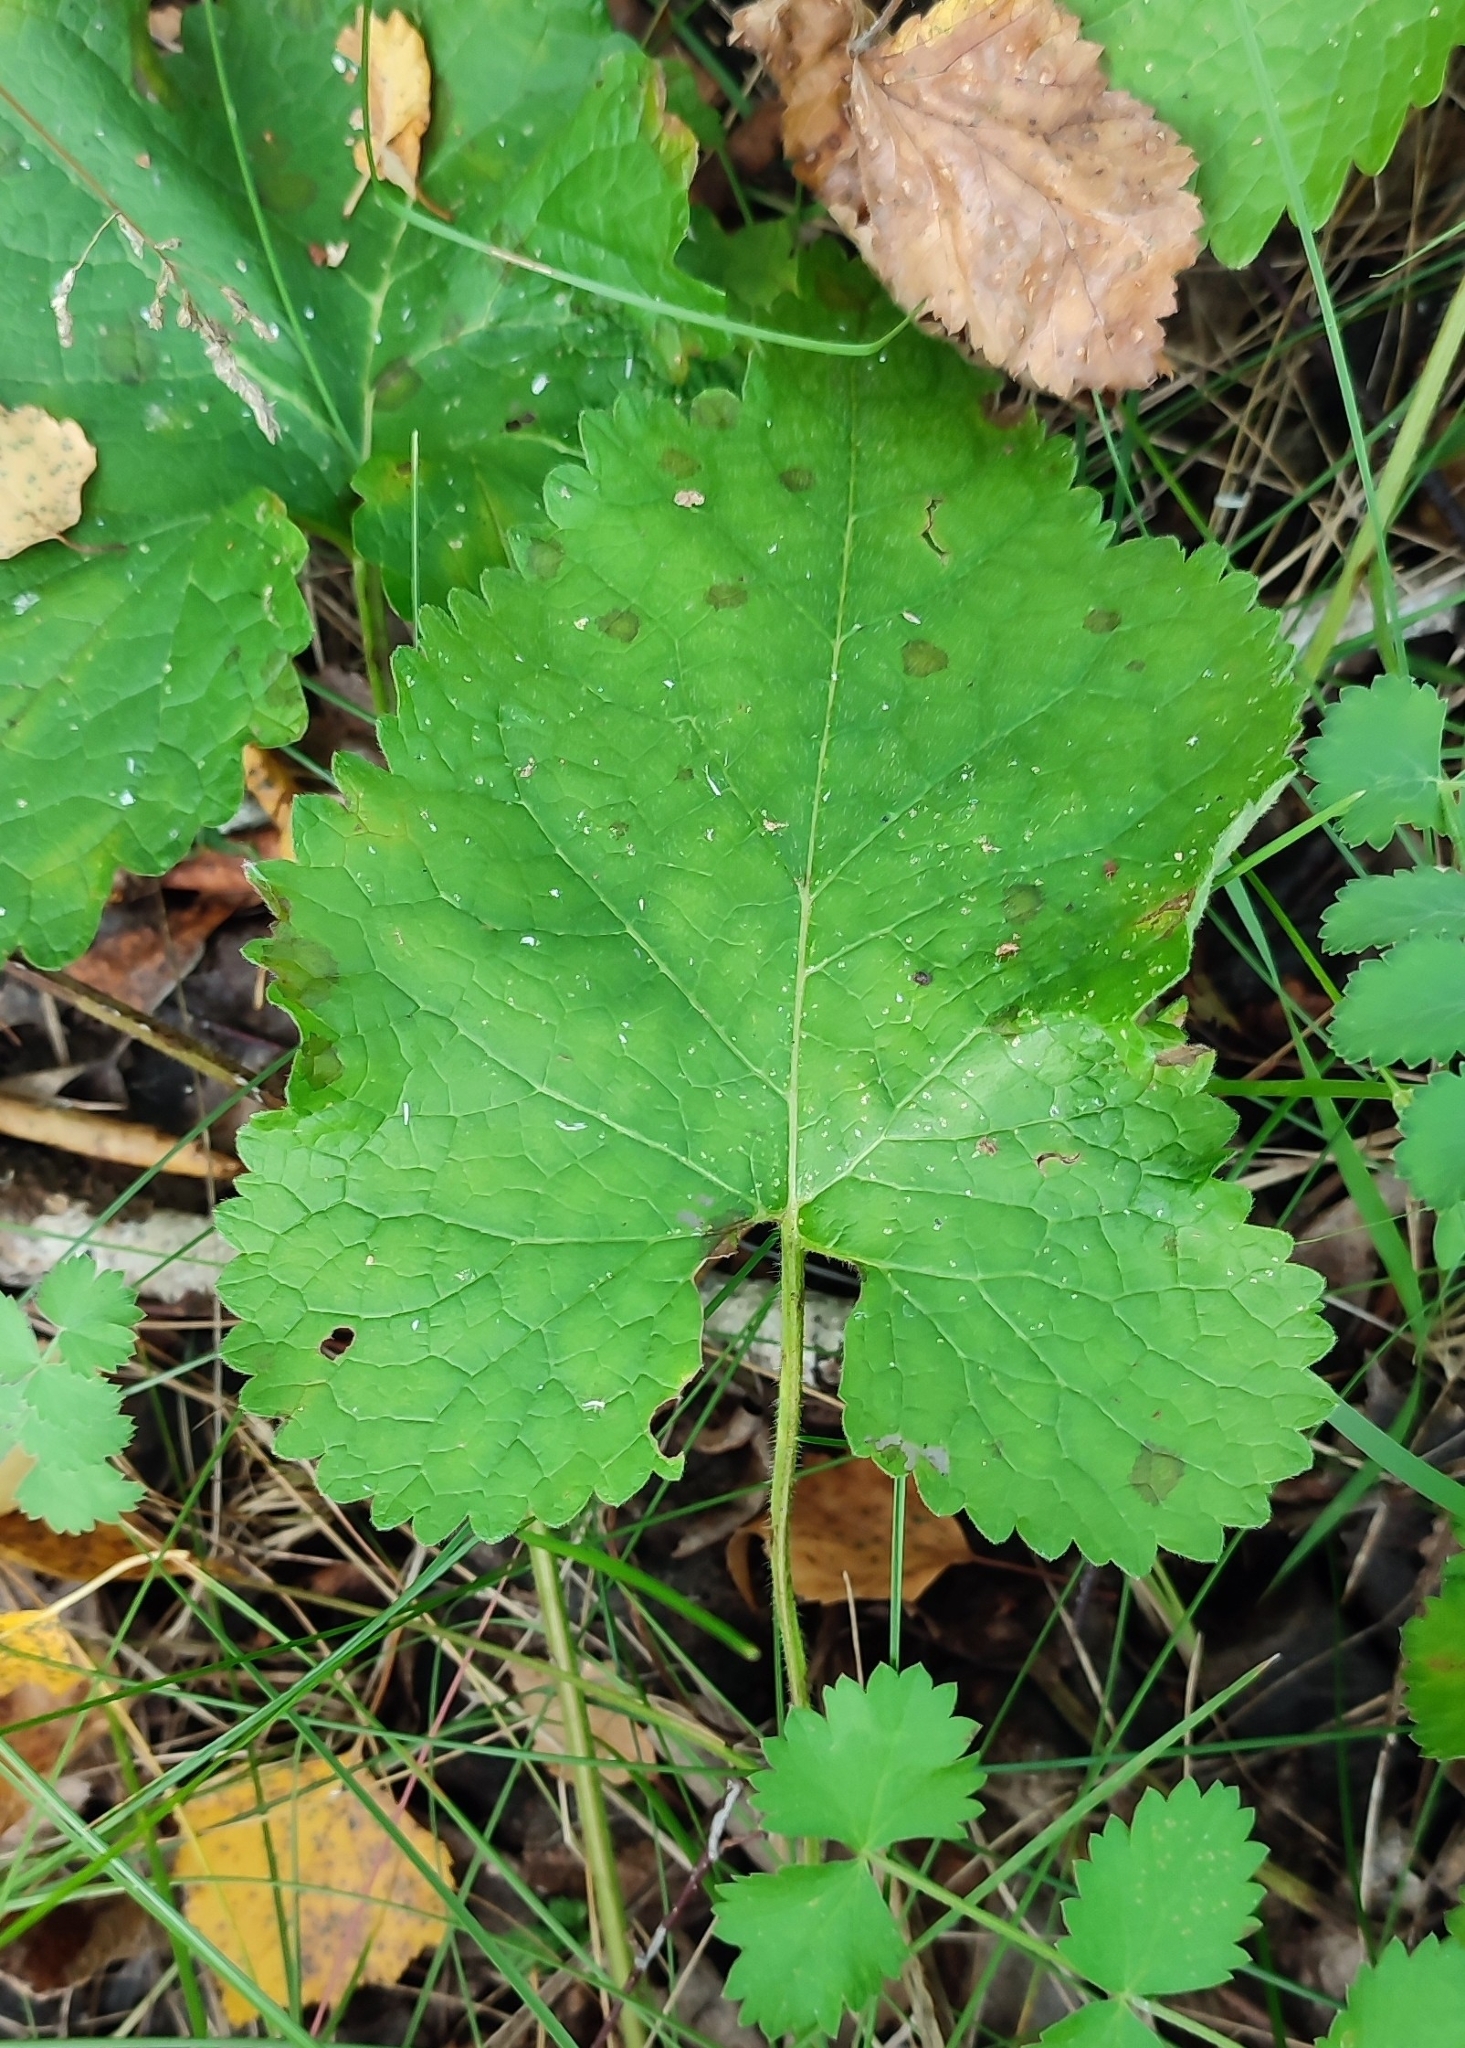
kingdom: Plantae
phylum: Tracheophyta
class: Magnoliopsida
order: Lamiales
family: Lamiaceae
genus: Phlomoides
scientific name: Phlomoides tuberosa
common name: Tuberous jerusalem sage
